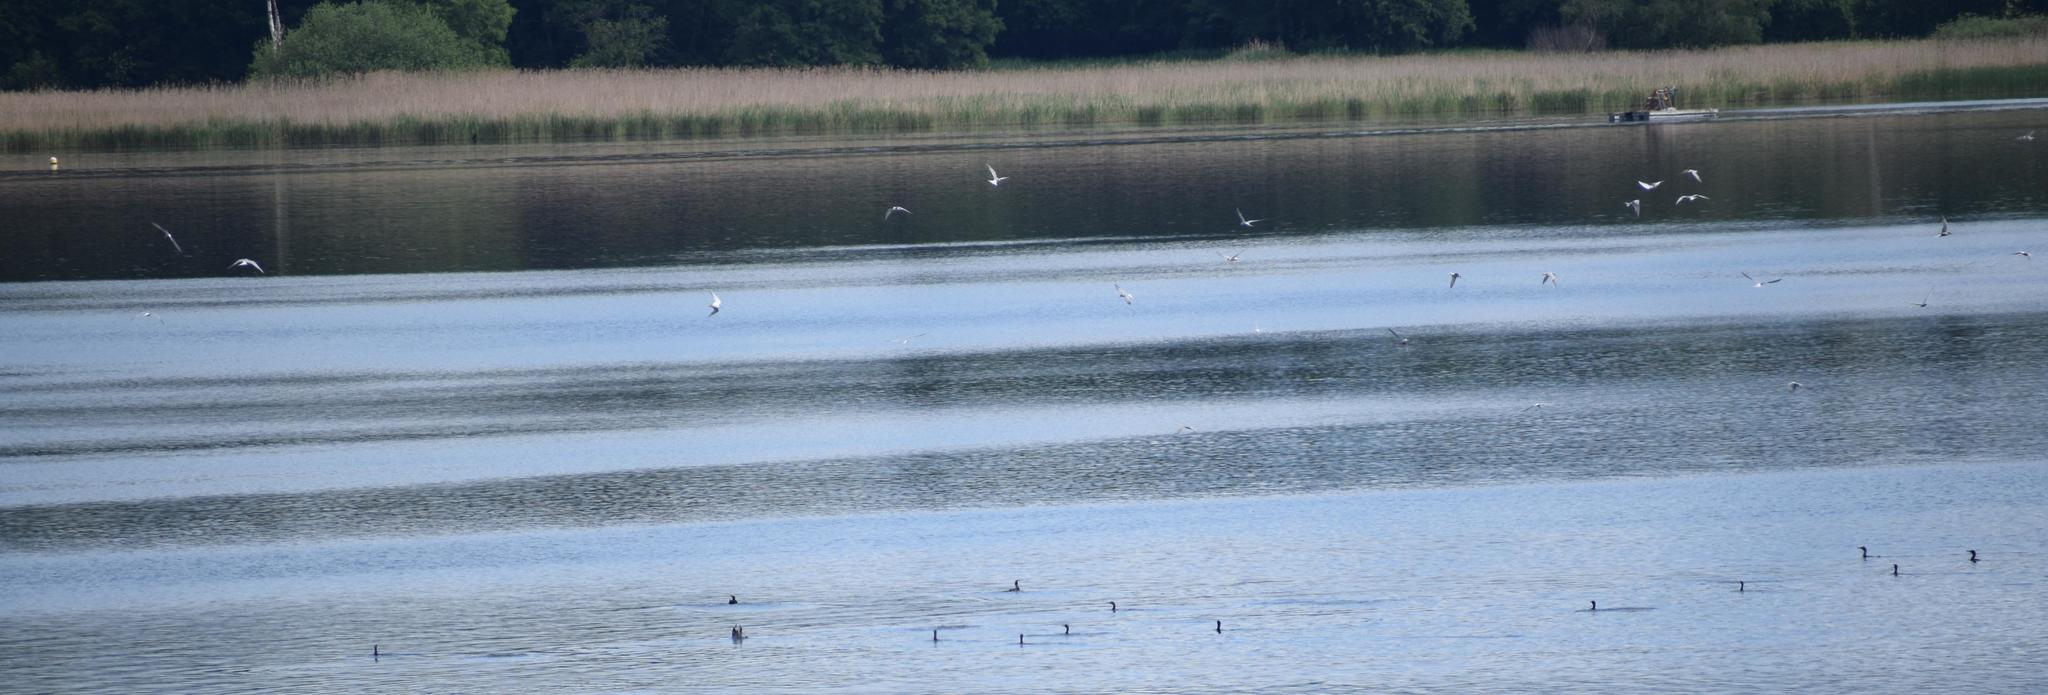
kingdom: Animalia
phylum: Chordata
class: Aves
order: Charadriiformes
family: Laridae
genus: Sterna
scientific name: Sterna hirundo
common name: Common tern
